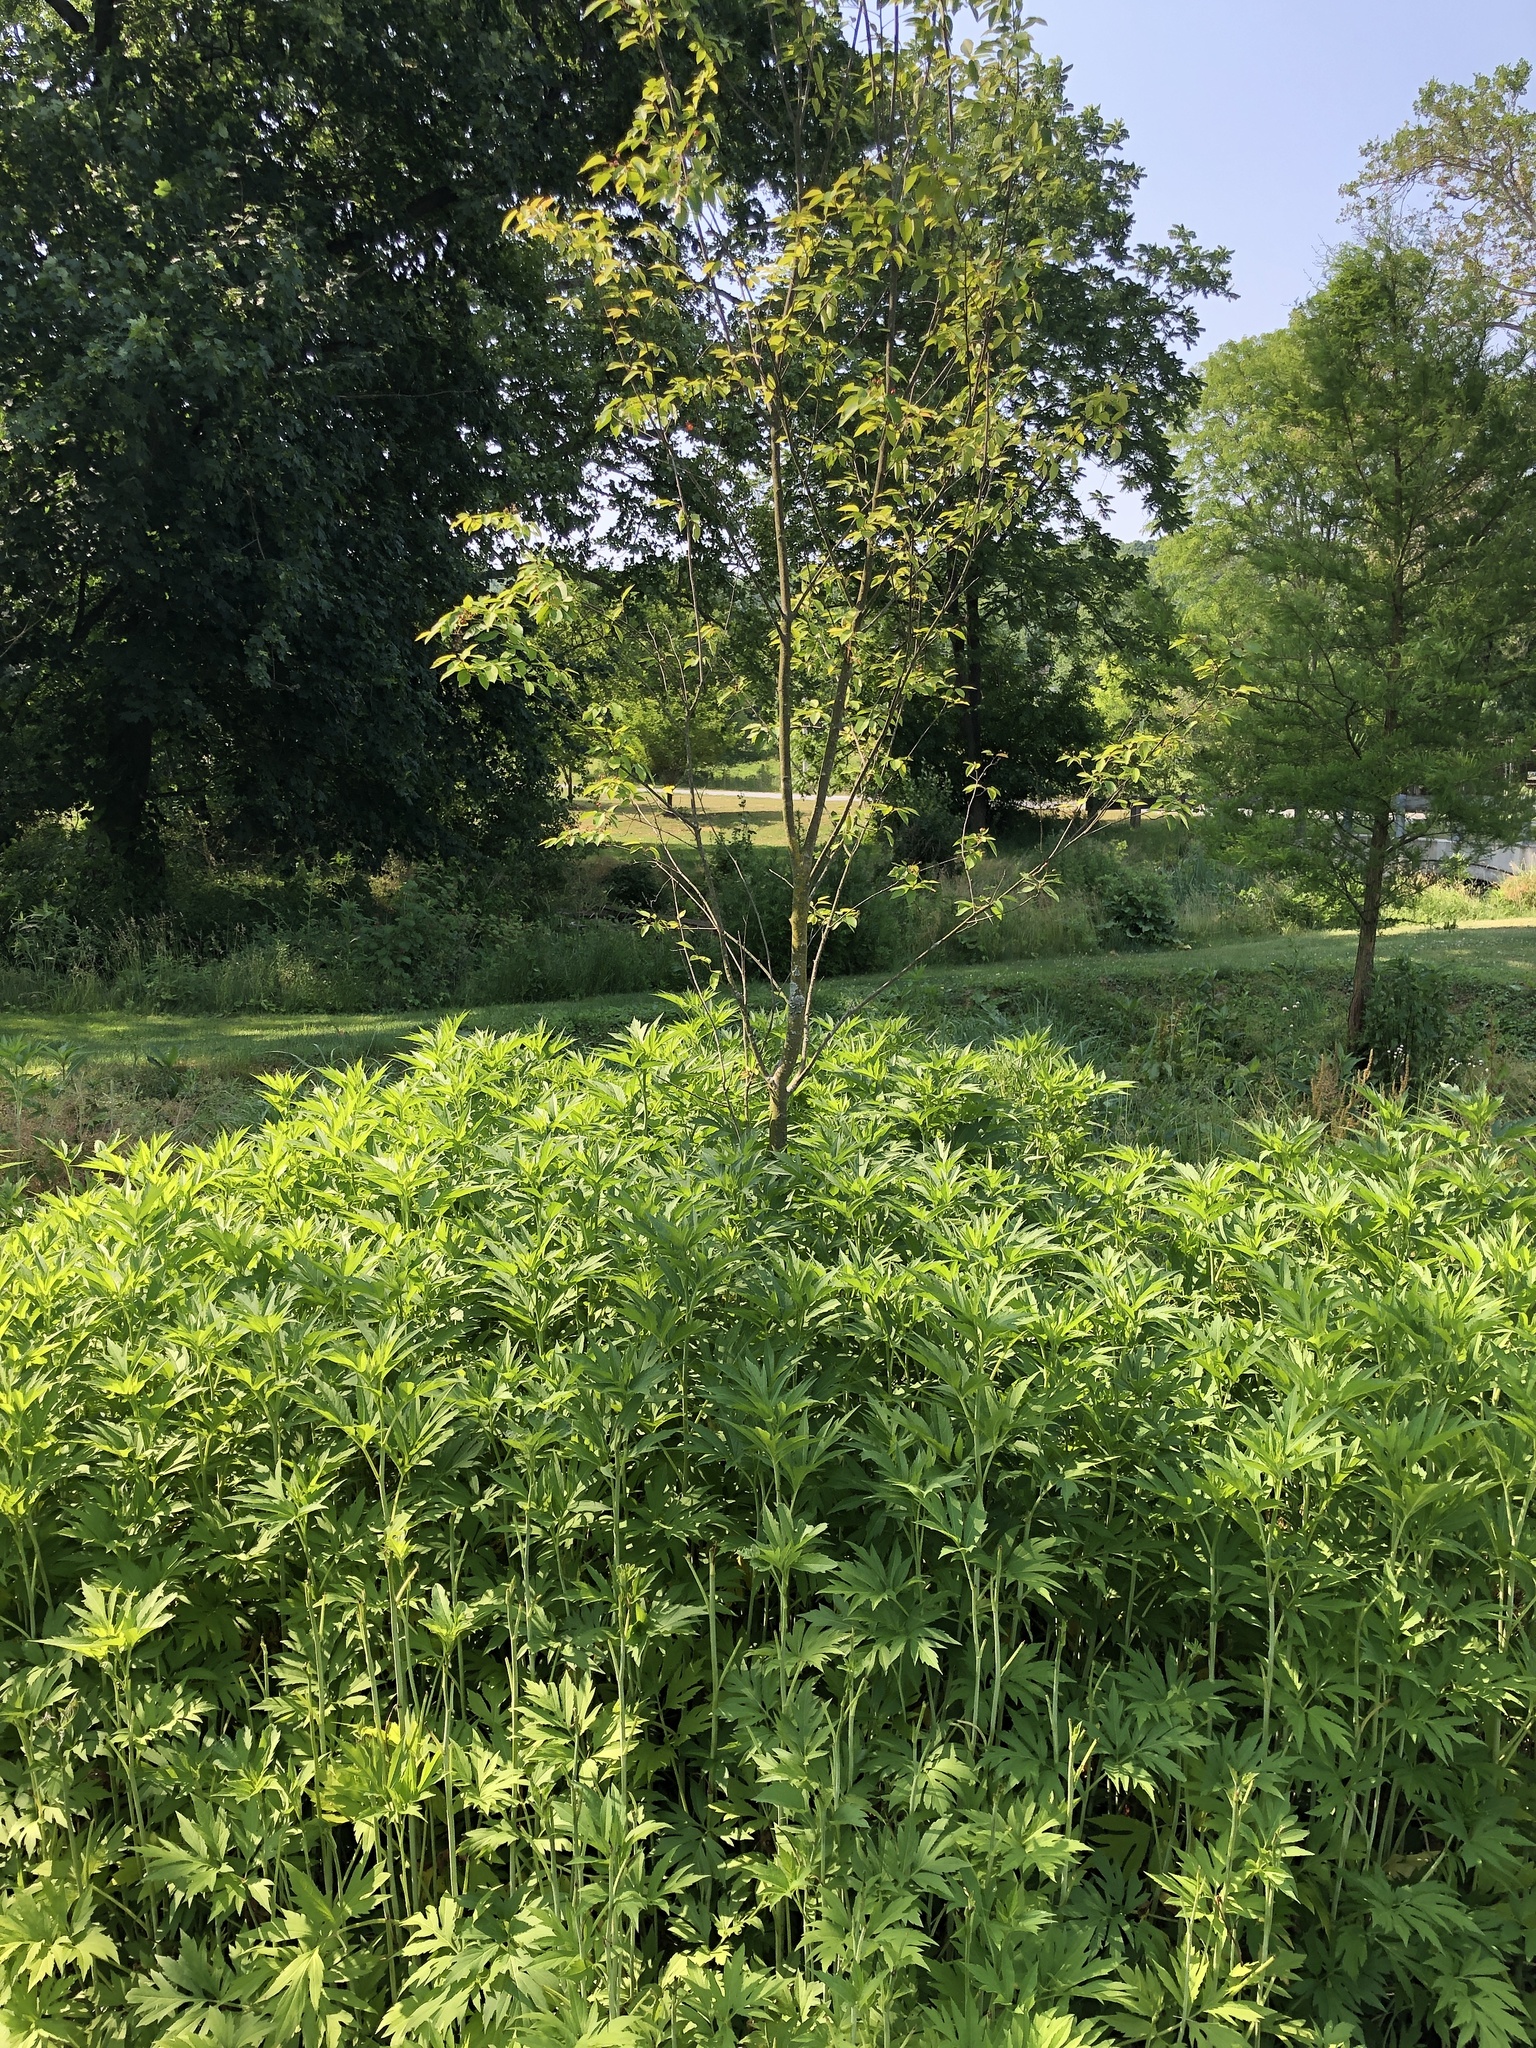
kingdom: Plantae
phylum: Tracheophyta
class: Magnoliopsida
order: Asterales
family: Asteraceae
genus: Rudbeckia
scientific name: Rudbeckia laciniata
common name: Coneflower
